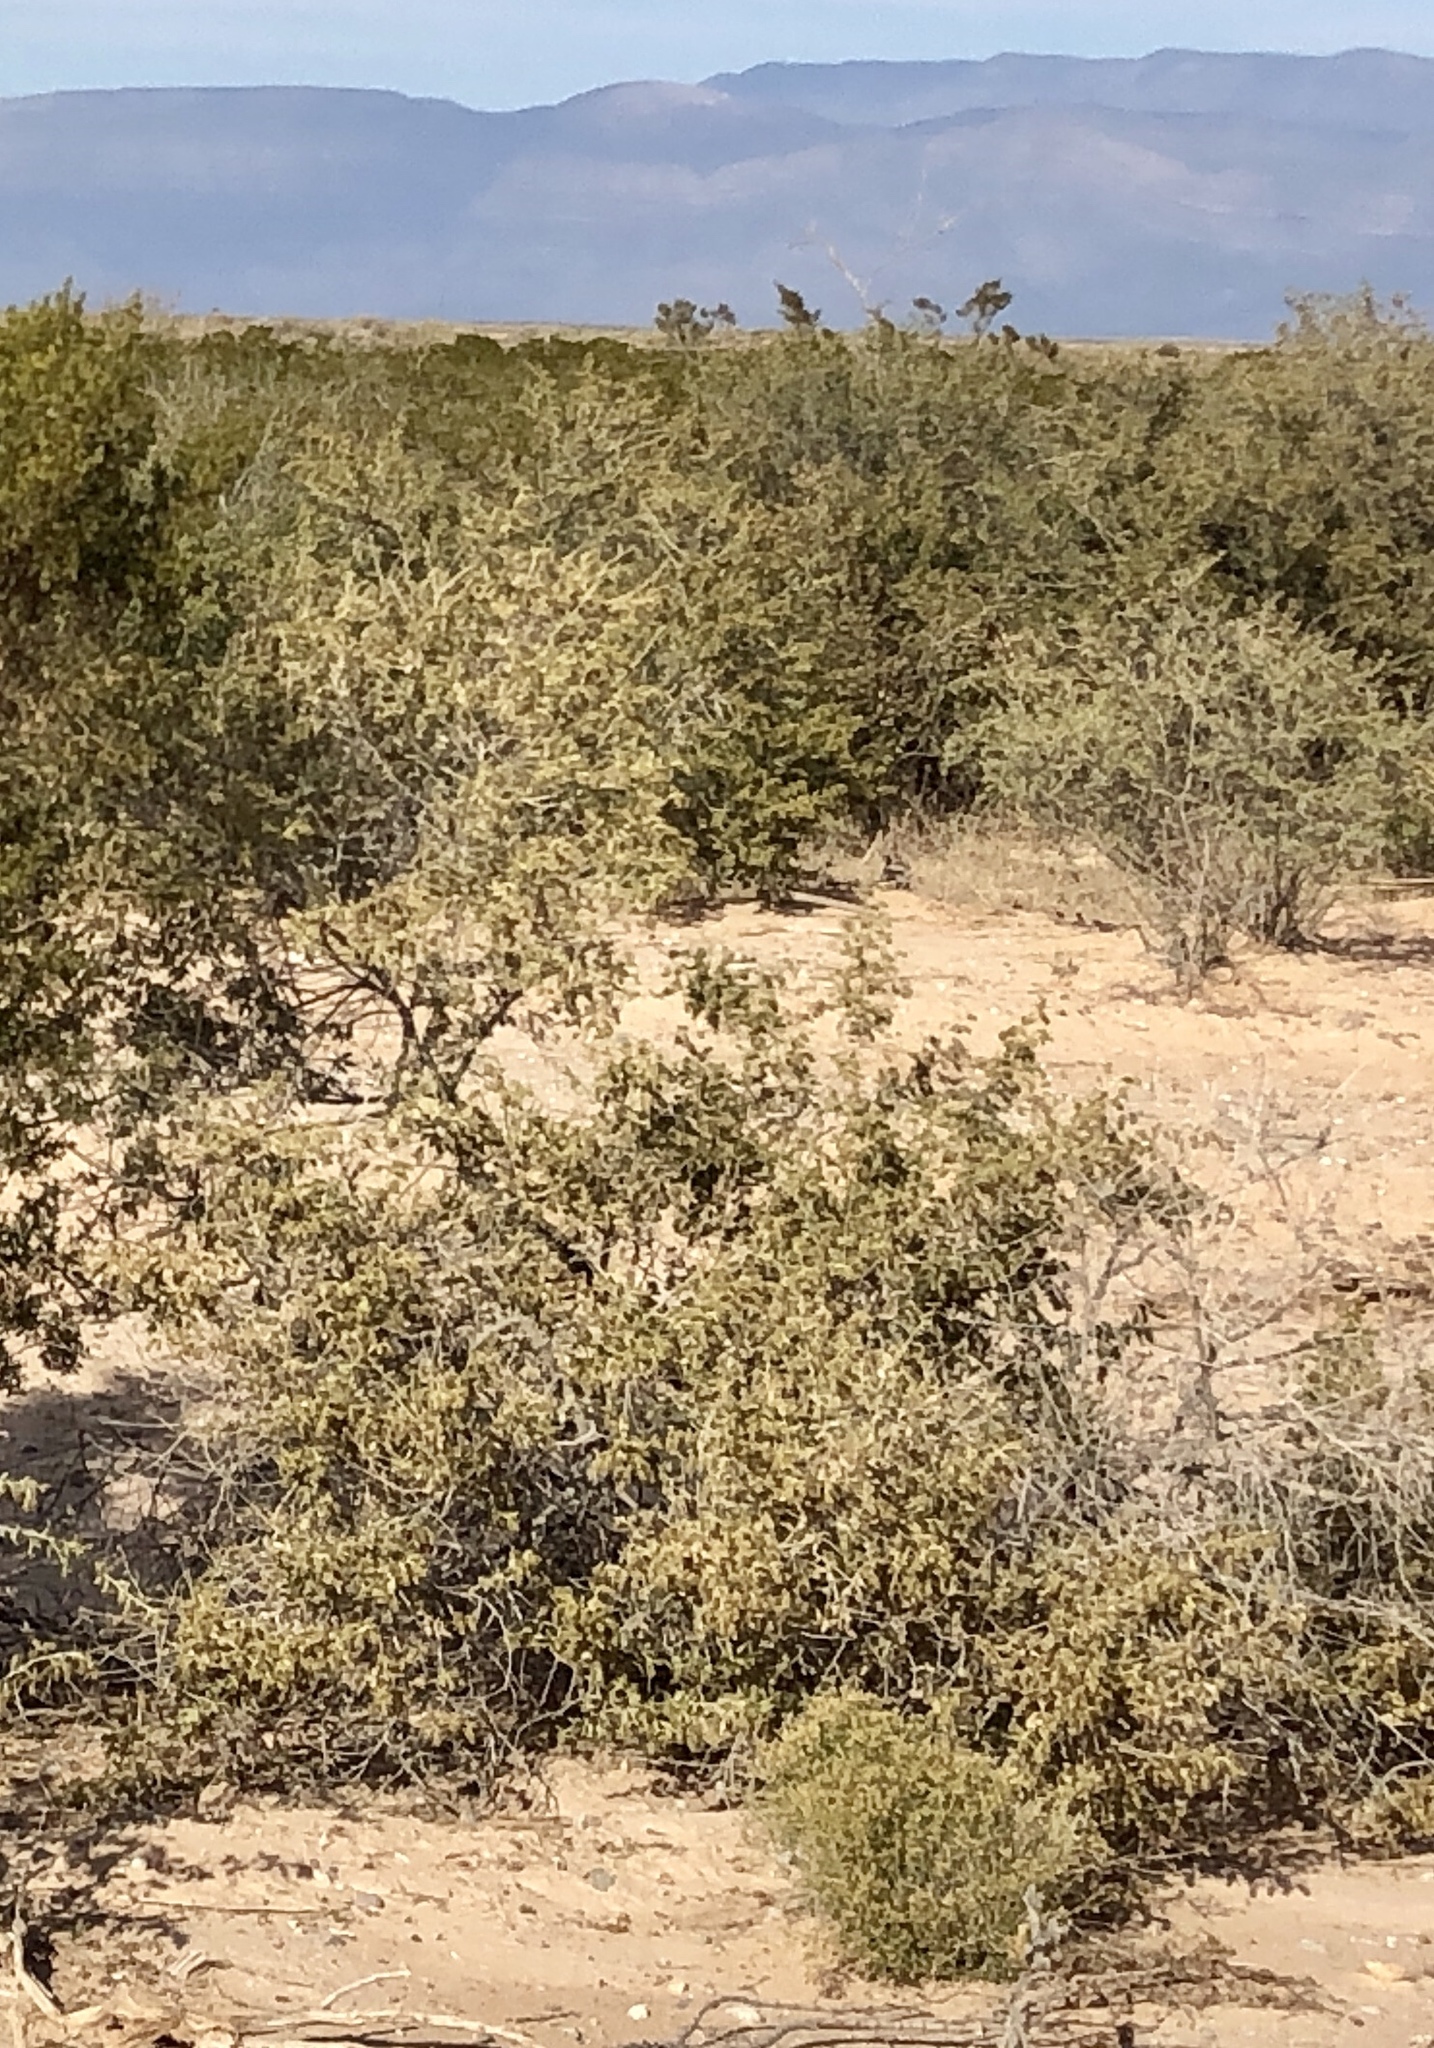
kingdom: Plantae
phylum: Tracheophyta
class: Magnoliopsida
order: Caryophyllales
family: Amaranthaceae
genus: Atriplex
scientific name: Atriplex canescens
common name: Four-wing saltbush
